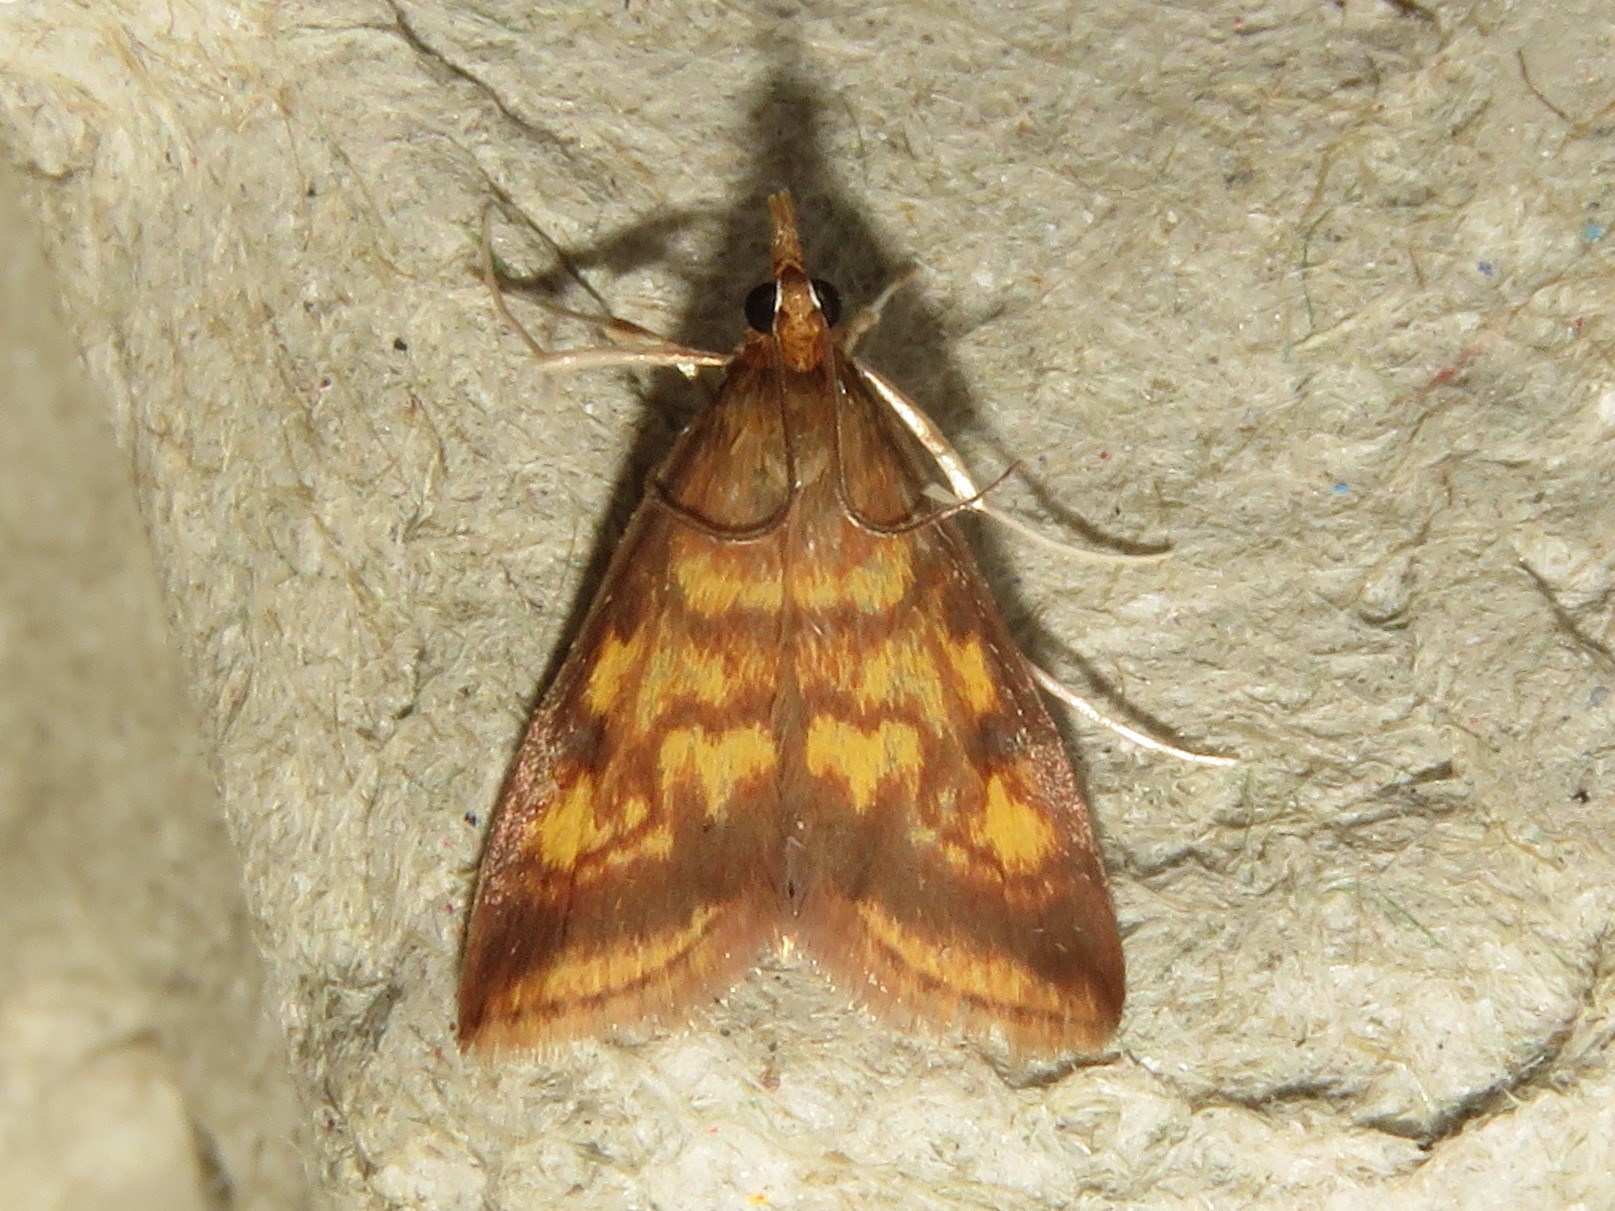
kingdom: Animalia
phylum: Arthropoda
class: Insecta
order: Lepidoptera
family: Crambidae
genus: Pyrausta
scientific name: Pyrausta acrionalis
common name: Mint-loving pyrausta moth
